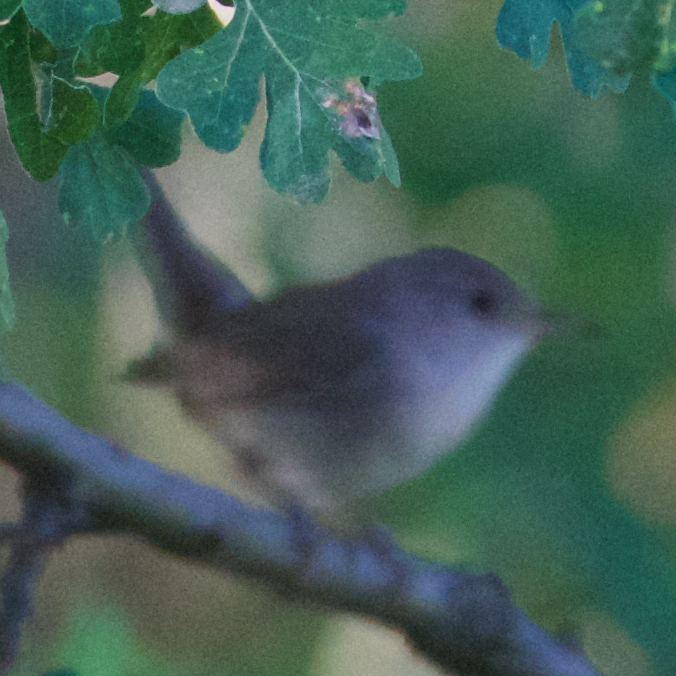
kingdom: Animalia
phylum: Chordata
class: Aves
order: Passeriformes
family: Troglodytidae
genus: Troglodytes
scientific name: Troglodytes aedon
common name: House wren
